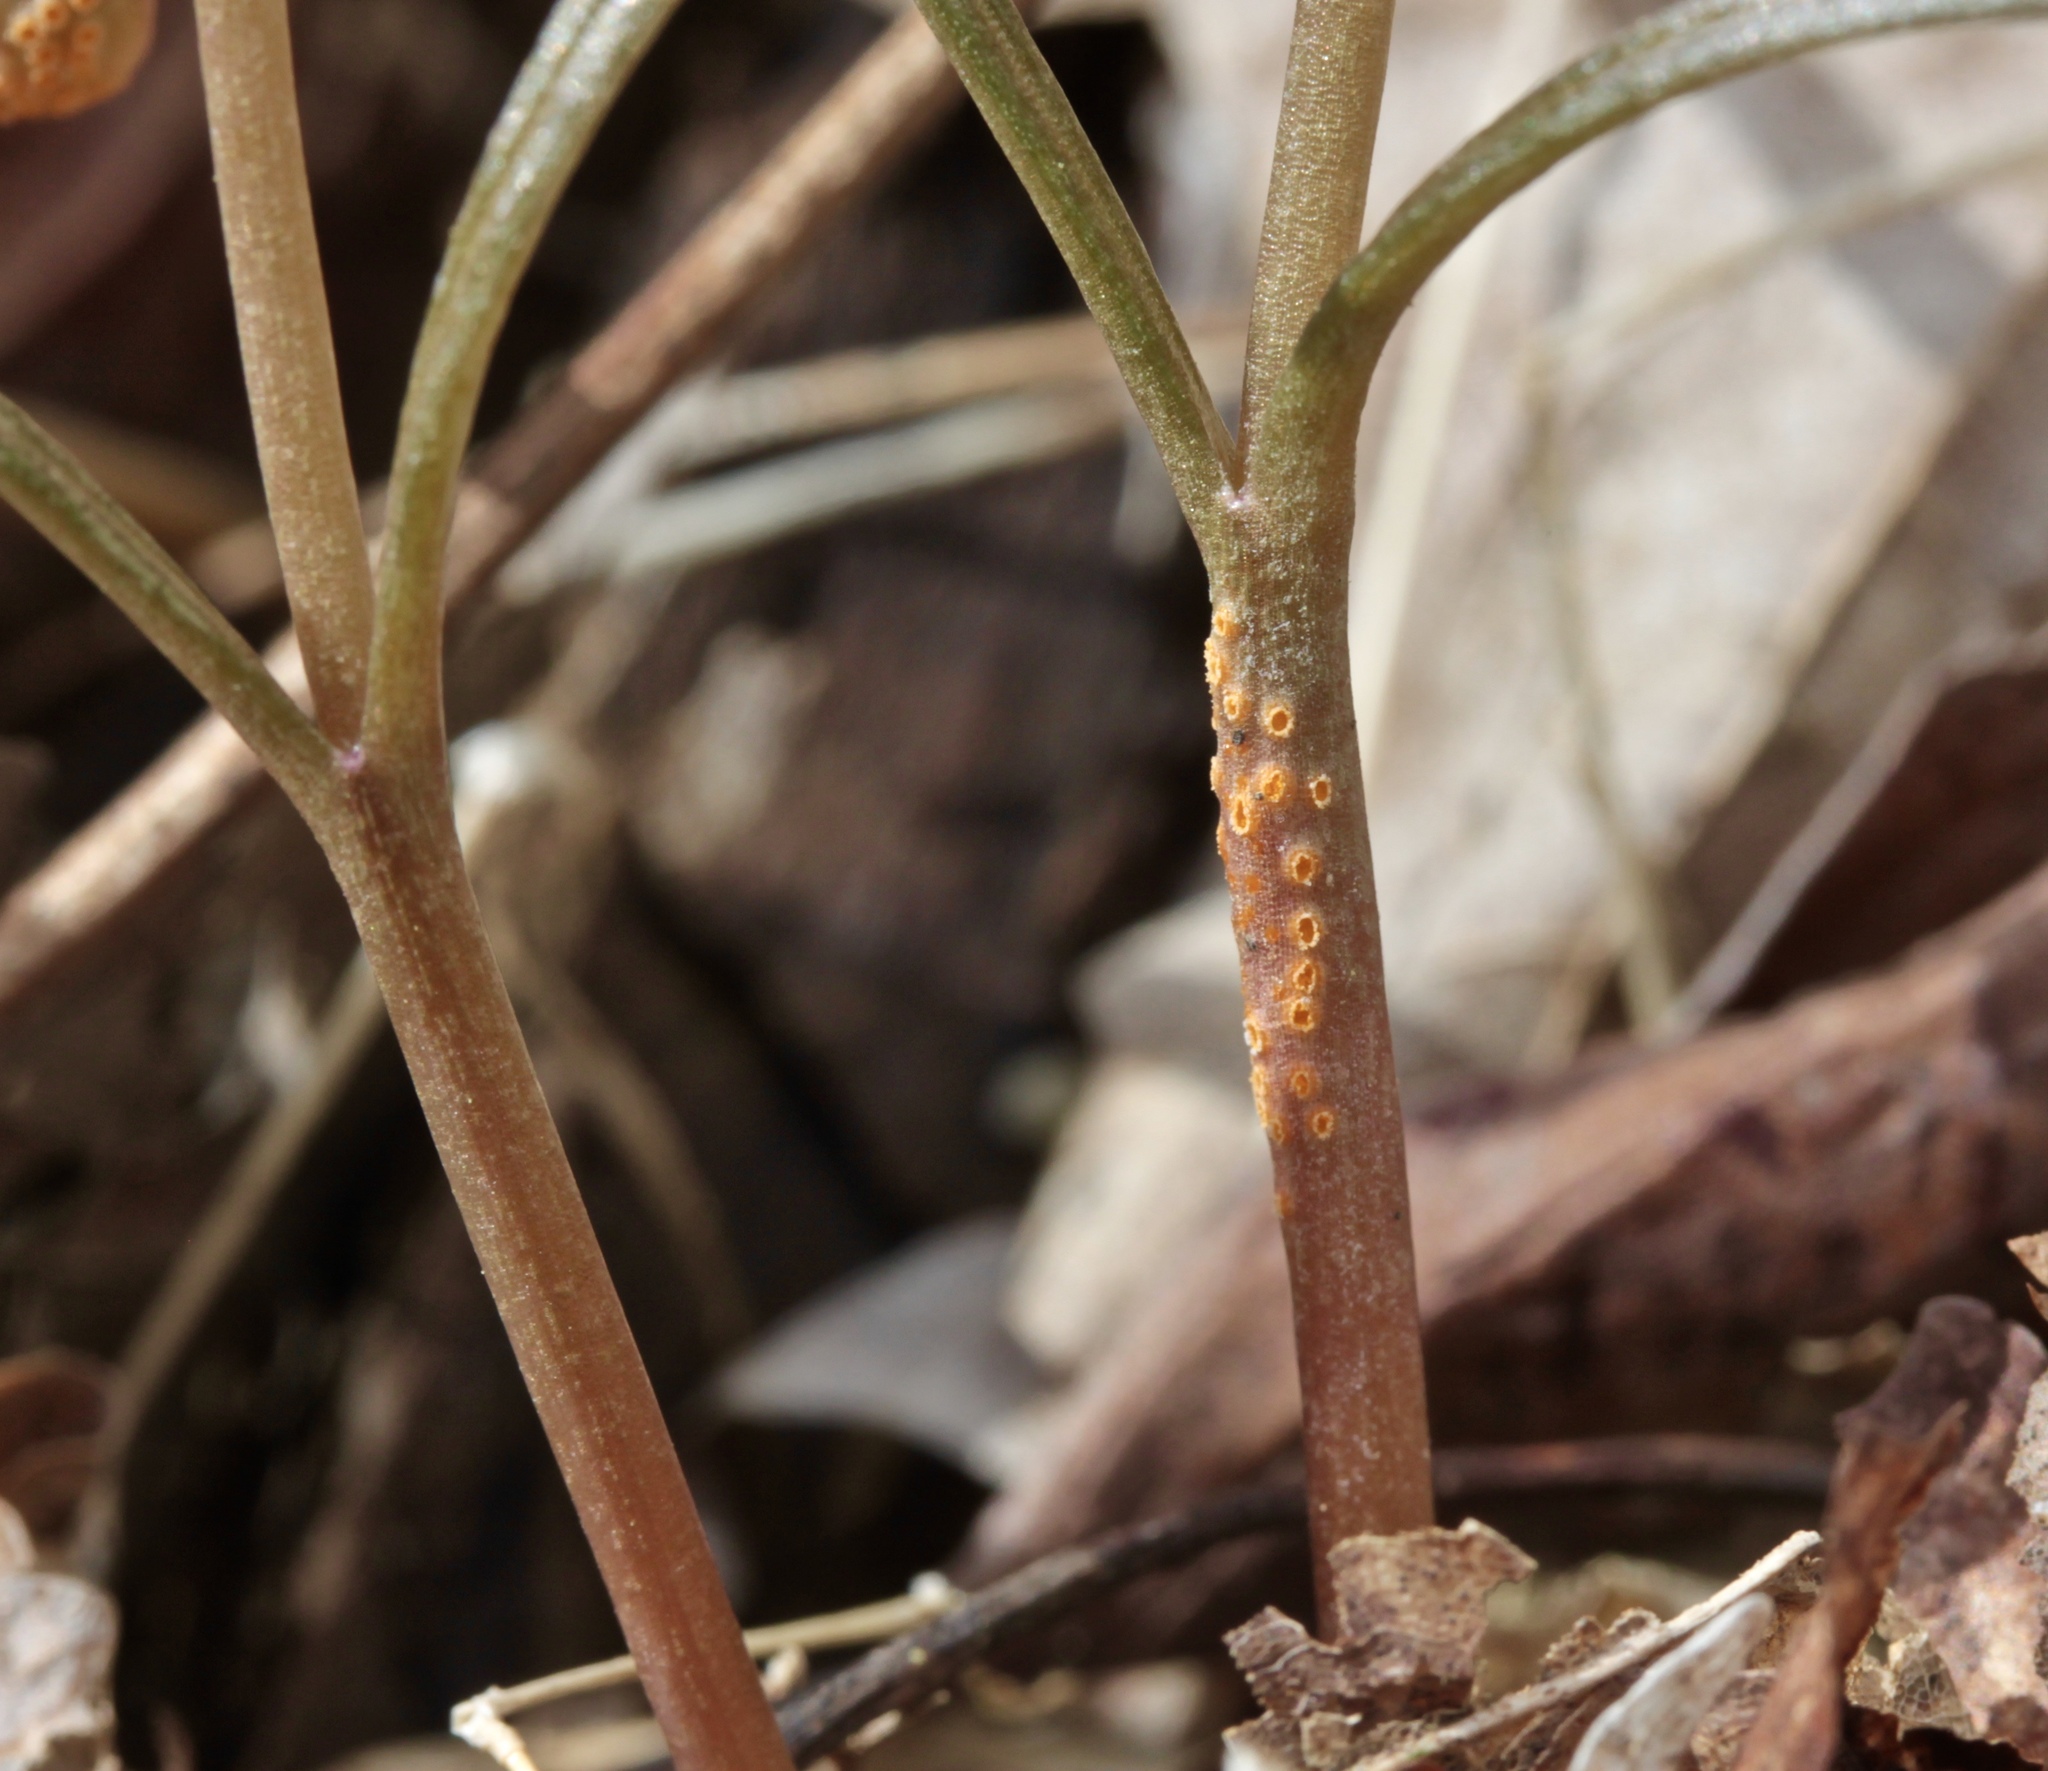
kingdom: Fungi
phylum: Basidiomycota
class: Pucciniomycetes
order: Pucciniales
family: Pucciniaceae
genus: Puccinia
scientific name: Puccinia mariae-wilsoniae
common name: Spring beauty rust
